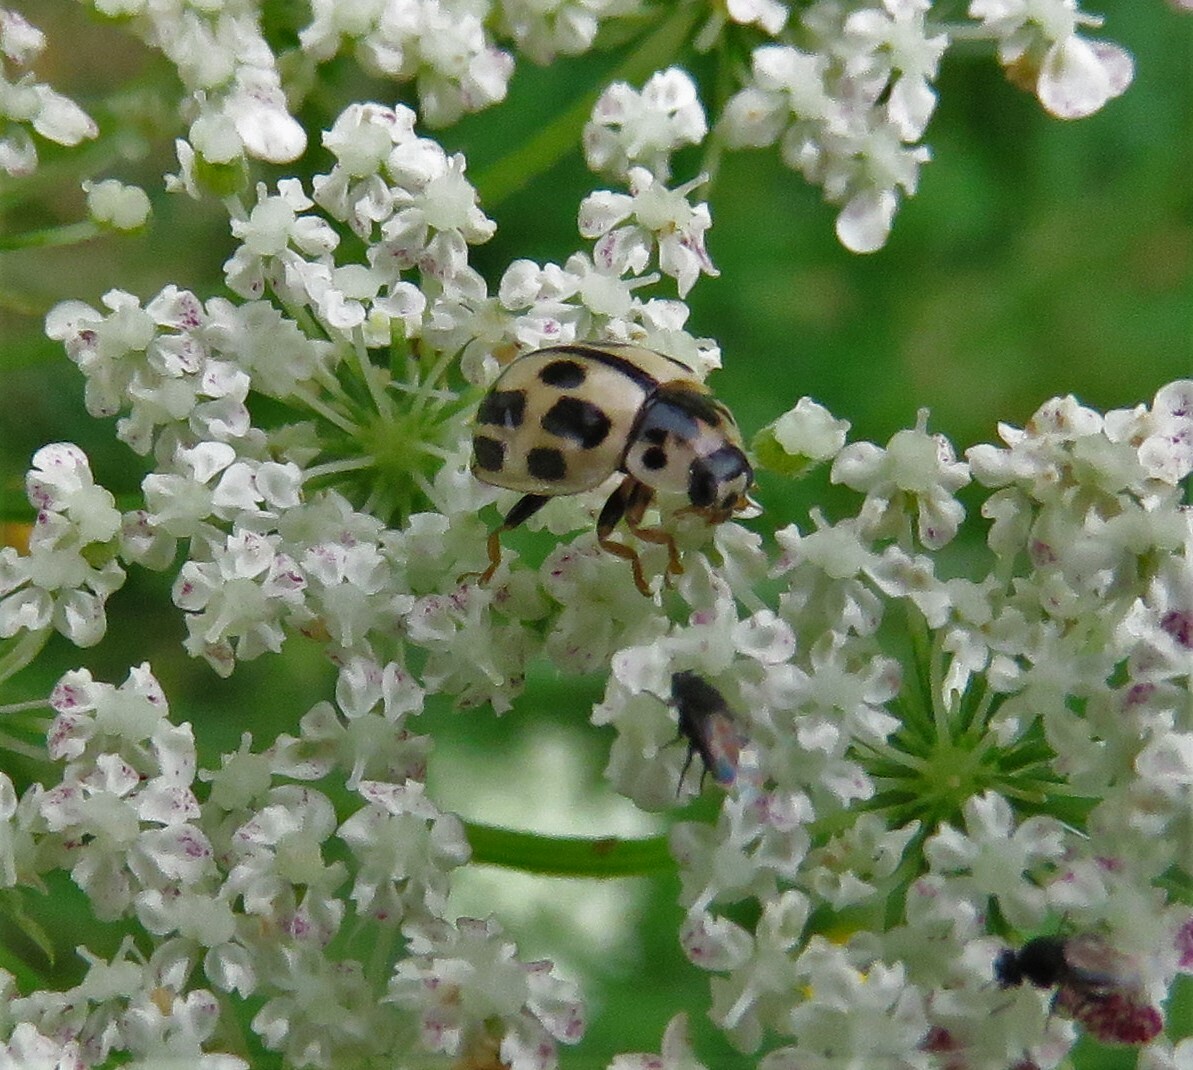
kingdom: Animalia
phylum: Arthropoda
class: Insecta
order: Coleoptera
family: Coccinellidae
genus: Propylaea
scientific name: Propylaea quatuordecimpunctata
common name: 14-spotted ladybird beetle
